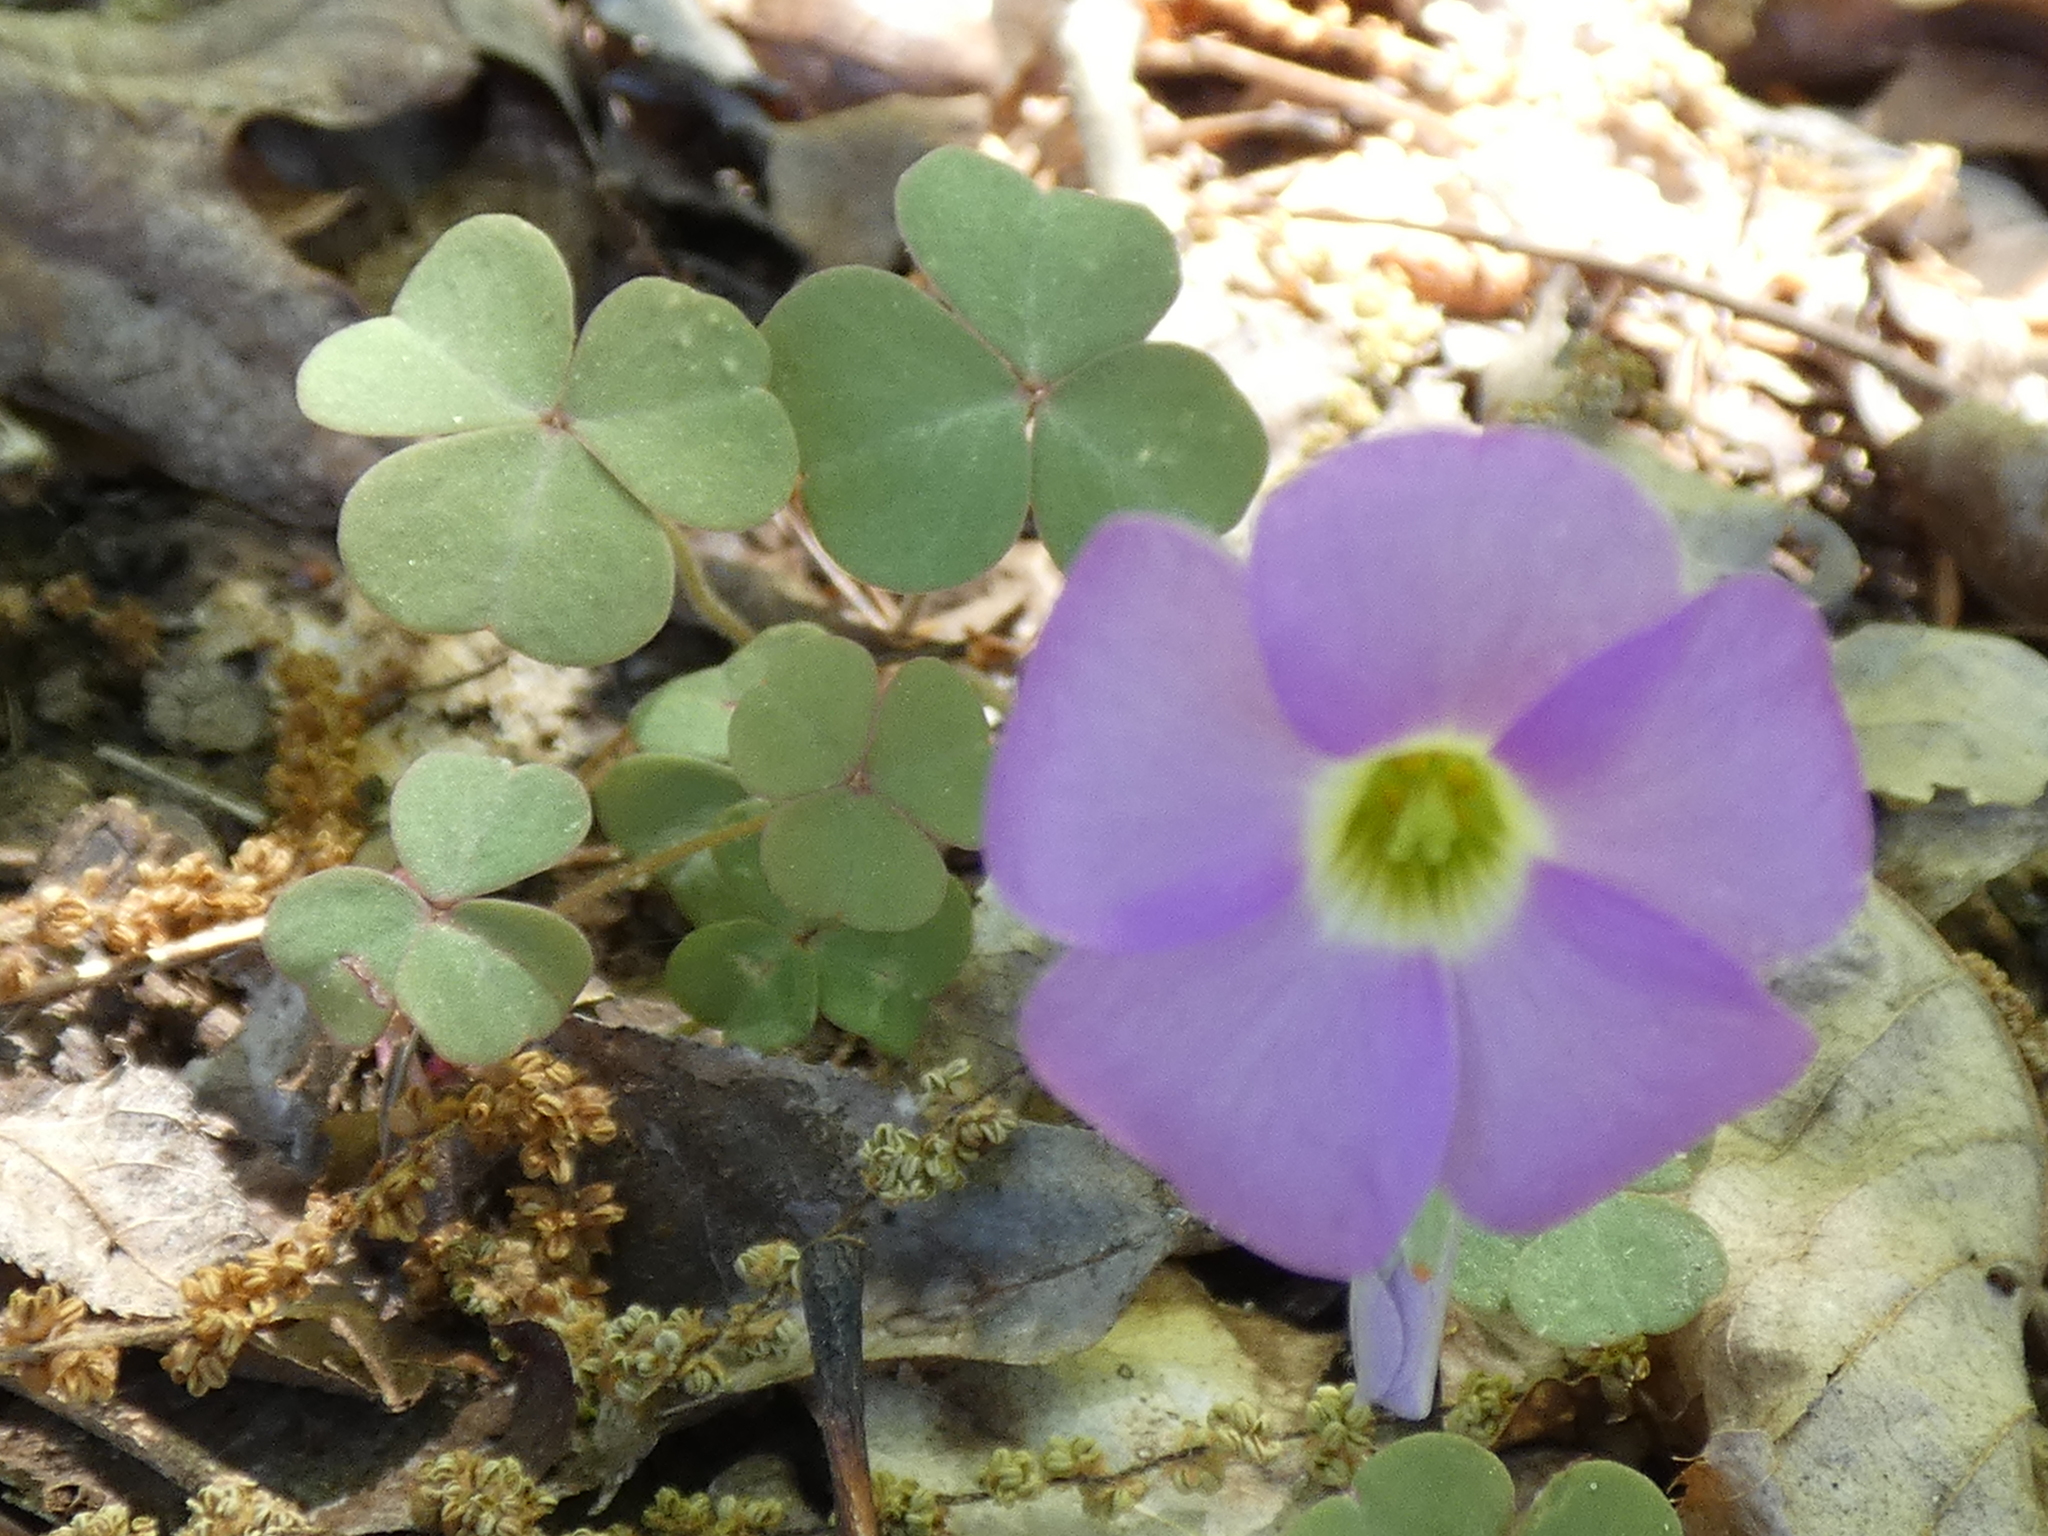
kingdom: Plantae
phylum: Tracheophyta
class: Magnoliopsida
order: Oxalidales
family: Oxalidaceae
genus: Oxalis
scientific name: Oxalis violacea
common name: Violet wood-sorrel
